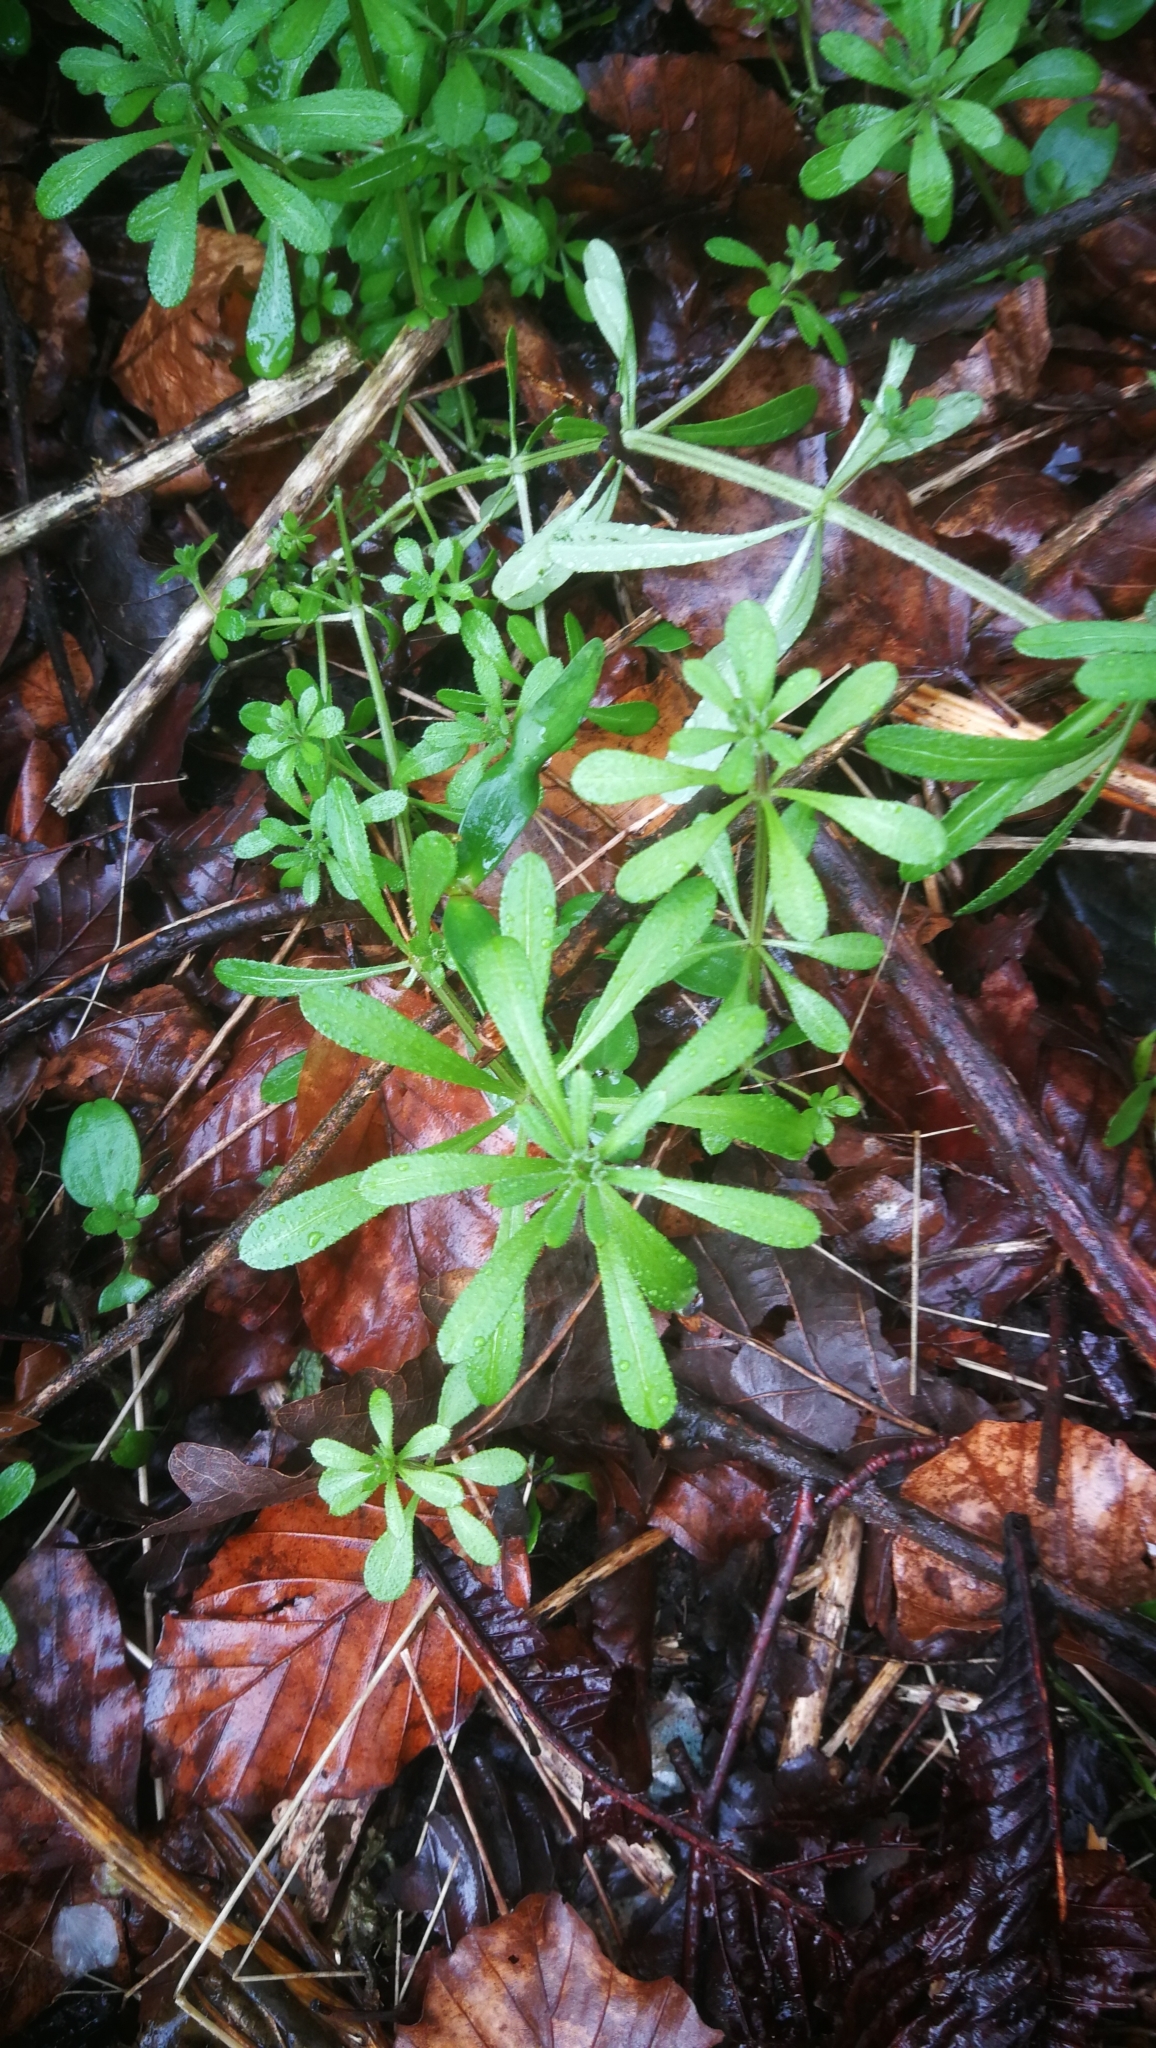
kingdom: Plantae
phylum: Tracheophyta
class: Magnoliopsida
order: Gentianales
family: Rubiaceae
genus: Galium
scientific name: Galium aparine
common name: Cleavers
